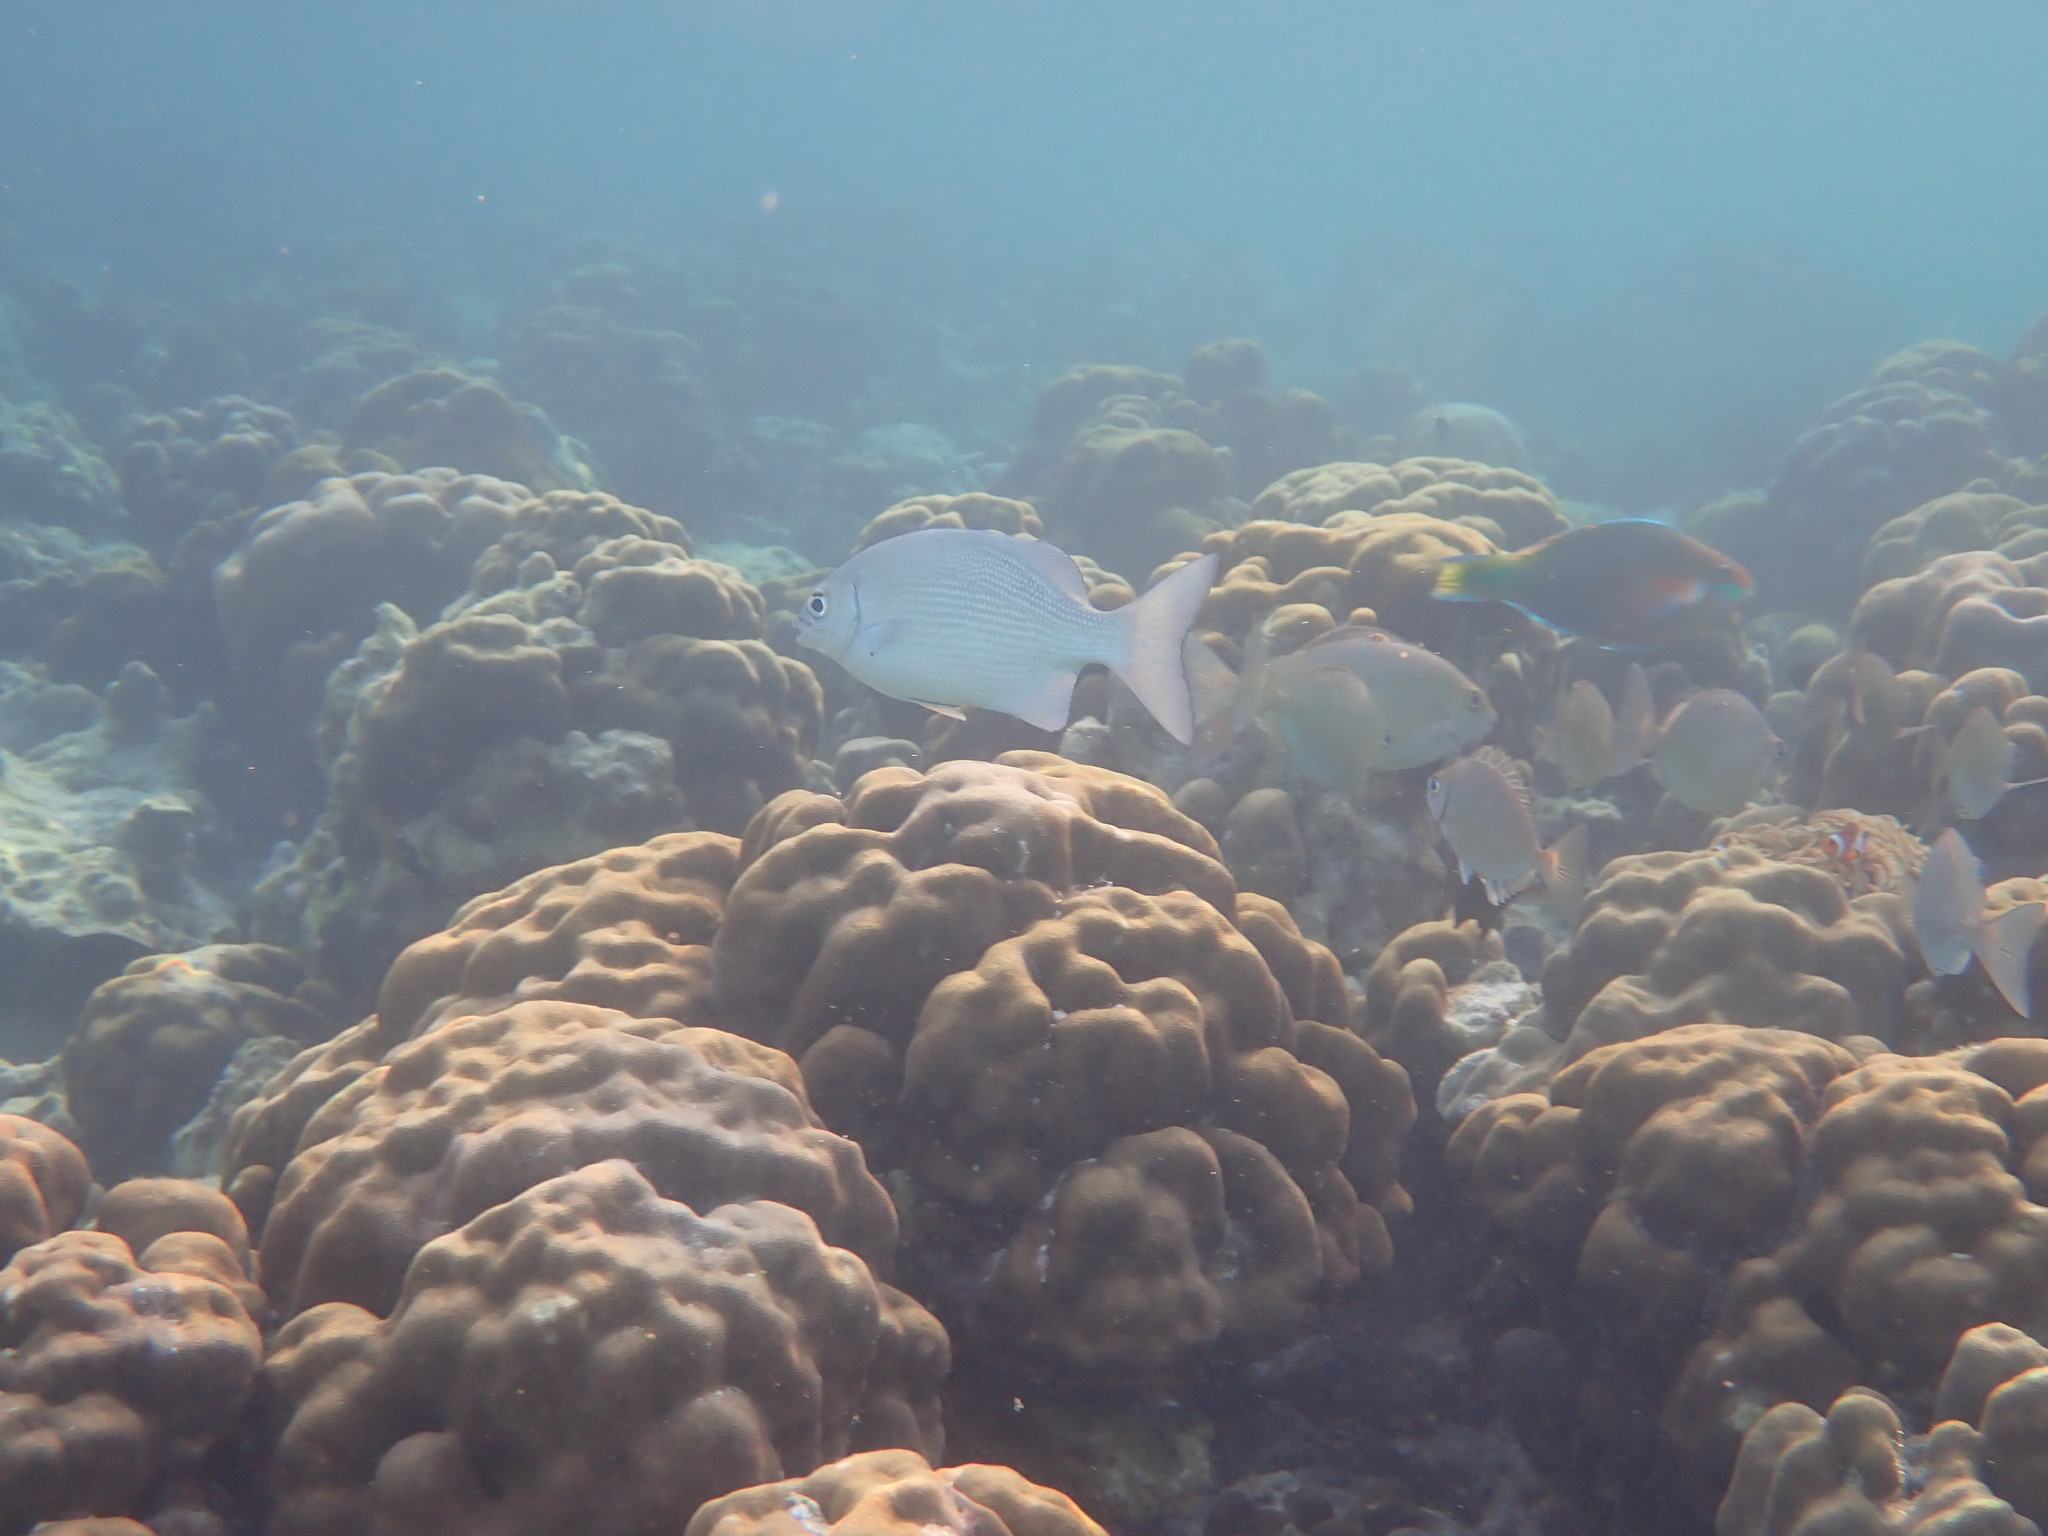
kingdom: Animalia
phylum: Chordata
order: Perciformes
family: Kyphosidae
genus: Kyphosus
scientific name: Kyphosus cinerascens
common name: Topsail drummer
